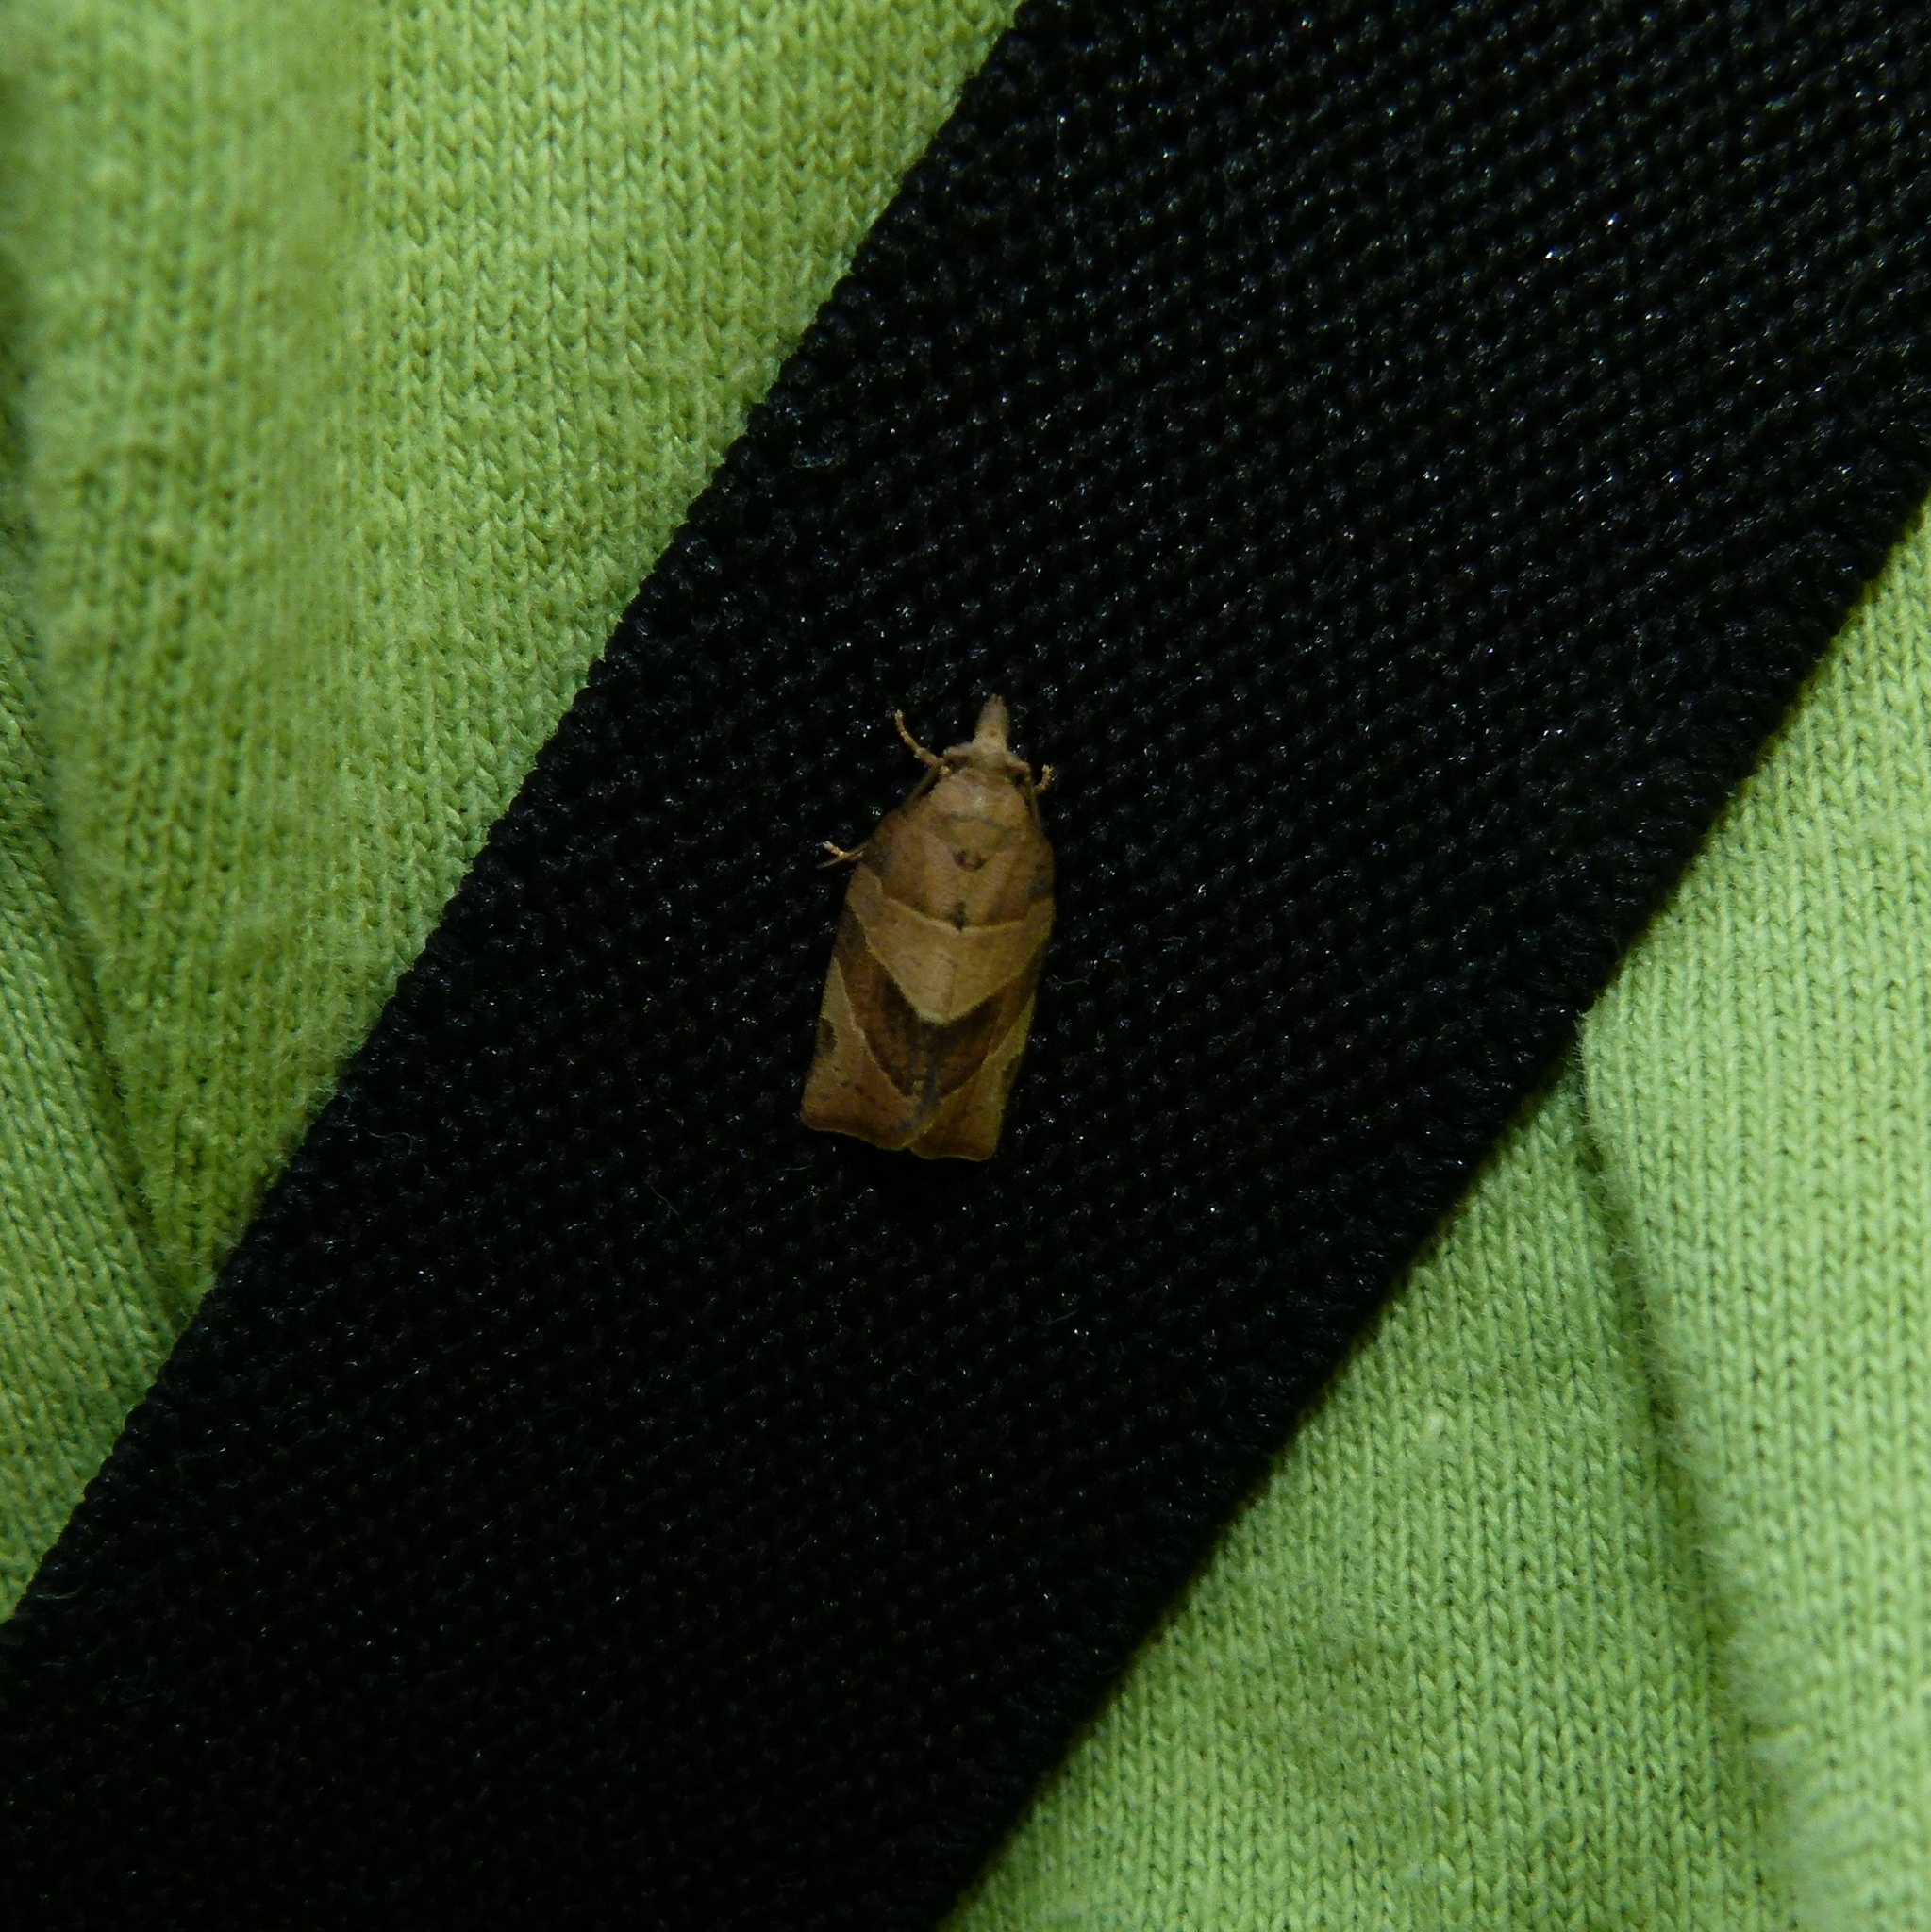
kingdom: Animalia
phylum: Arthropoda
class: Insecta
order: Lepidoptera
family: Tortricidae
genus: Pandemis
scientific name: Pandemis limitata
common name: Three-lined leafroller moth
